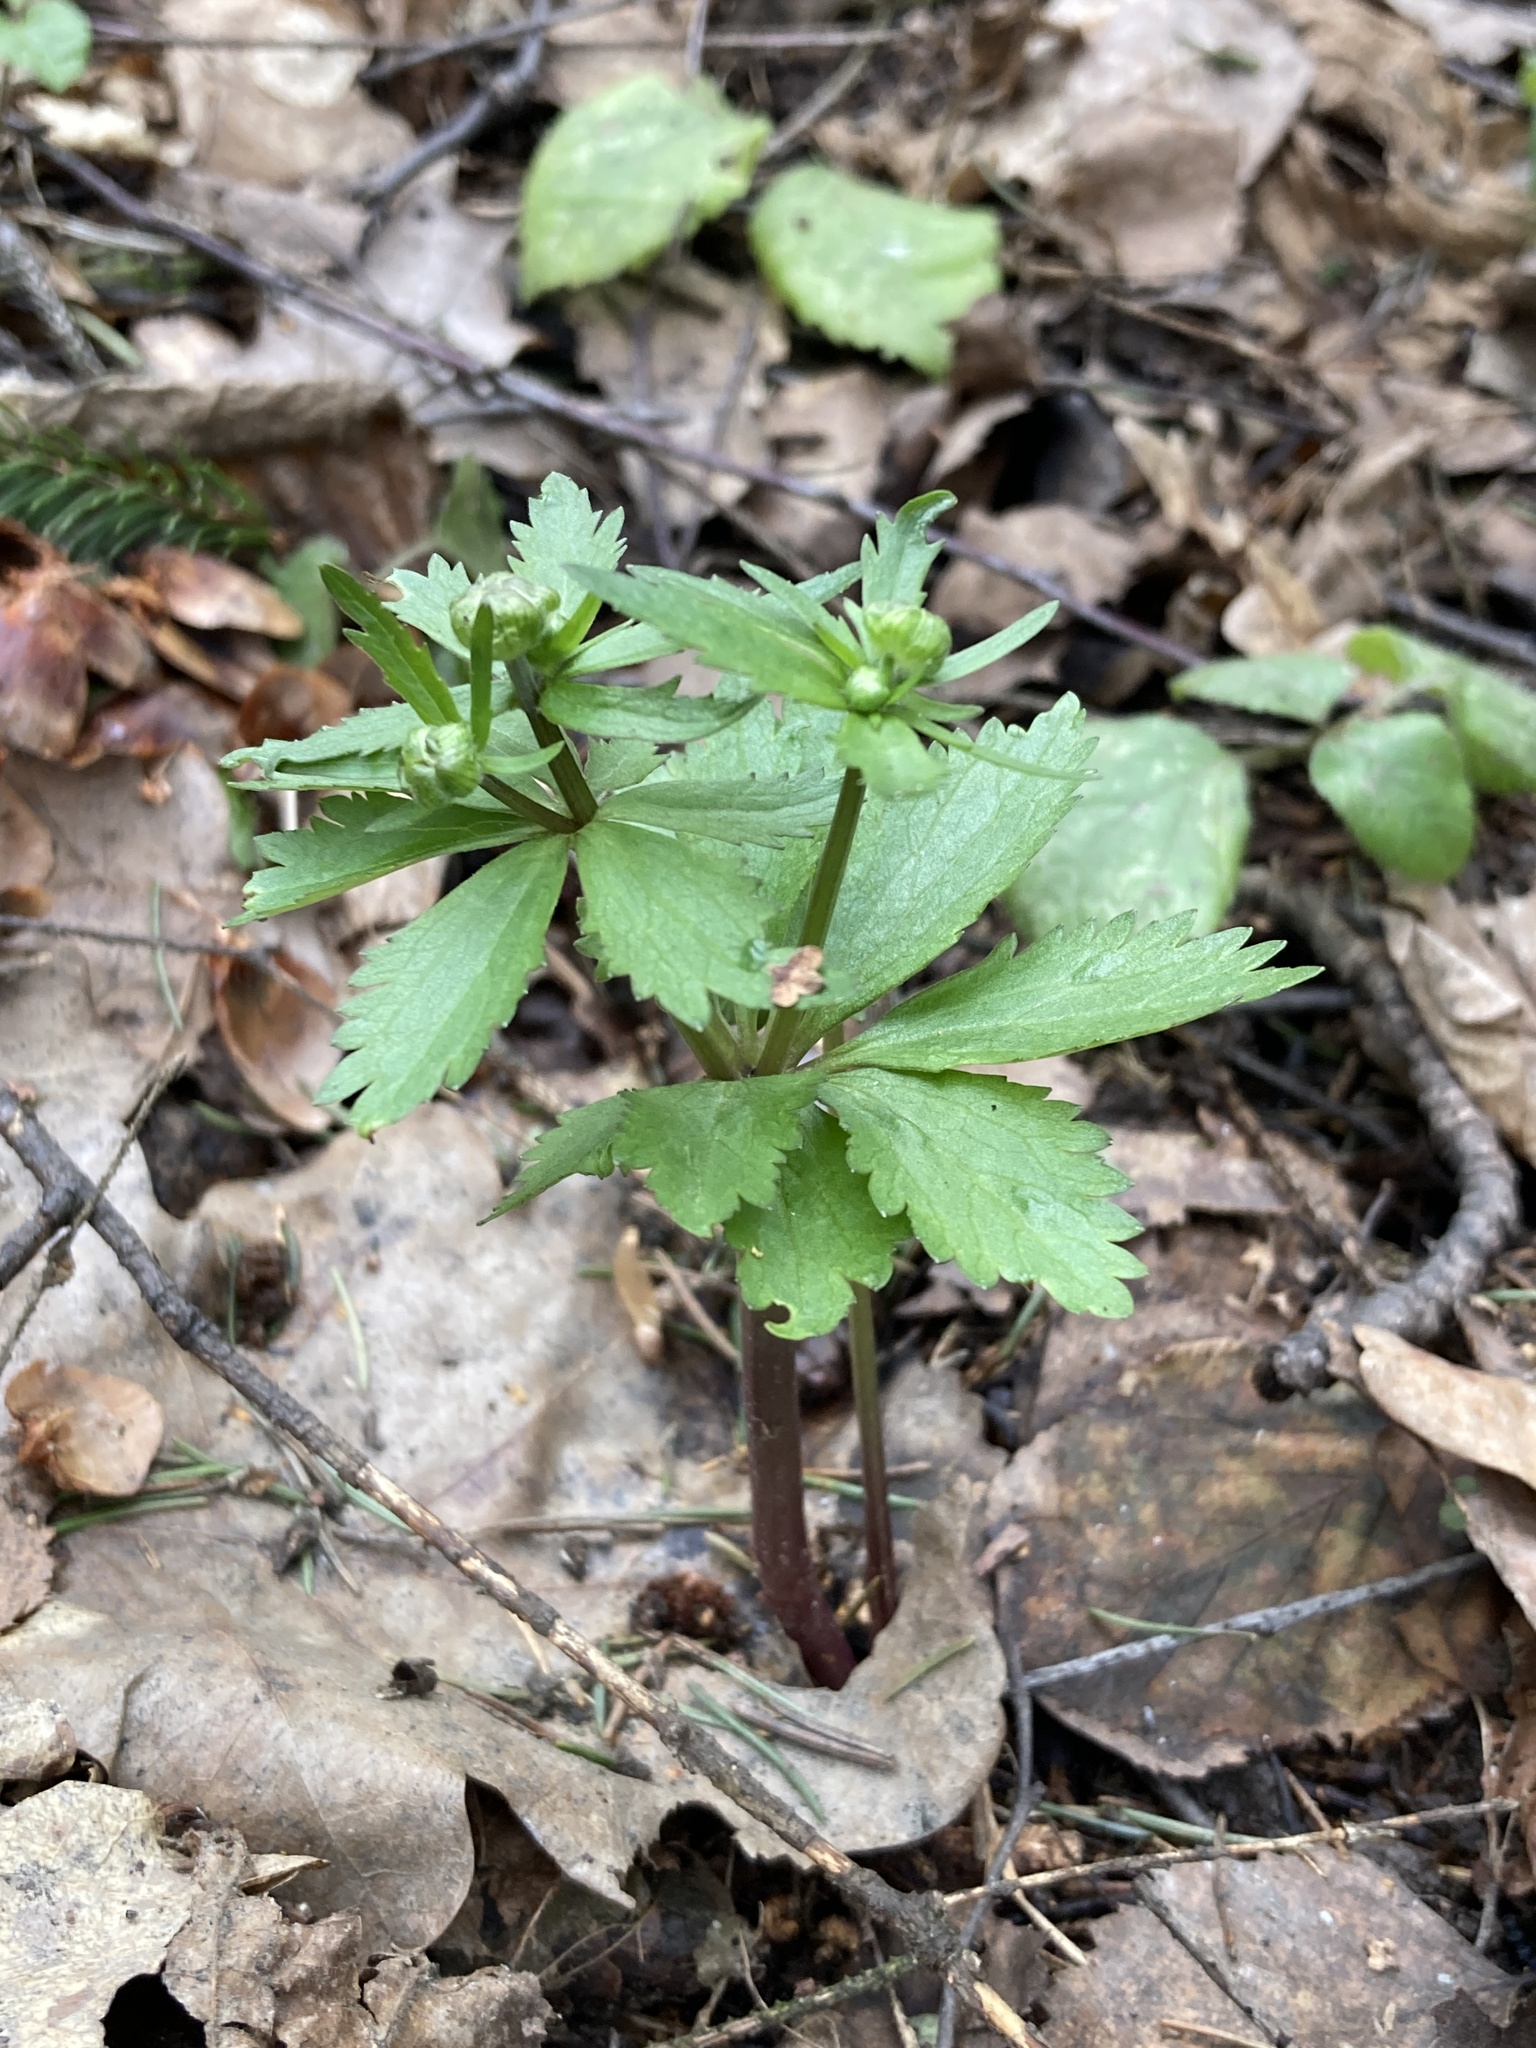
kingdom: Plantae
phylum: Tracheophyta
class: Magnoliopsida
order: Ranunculales
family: Ranunculaceae
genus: Ranunculus
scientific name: Ranunculus cassubicus
